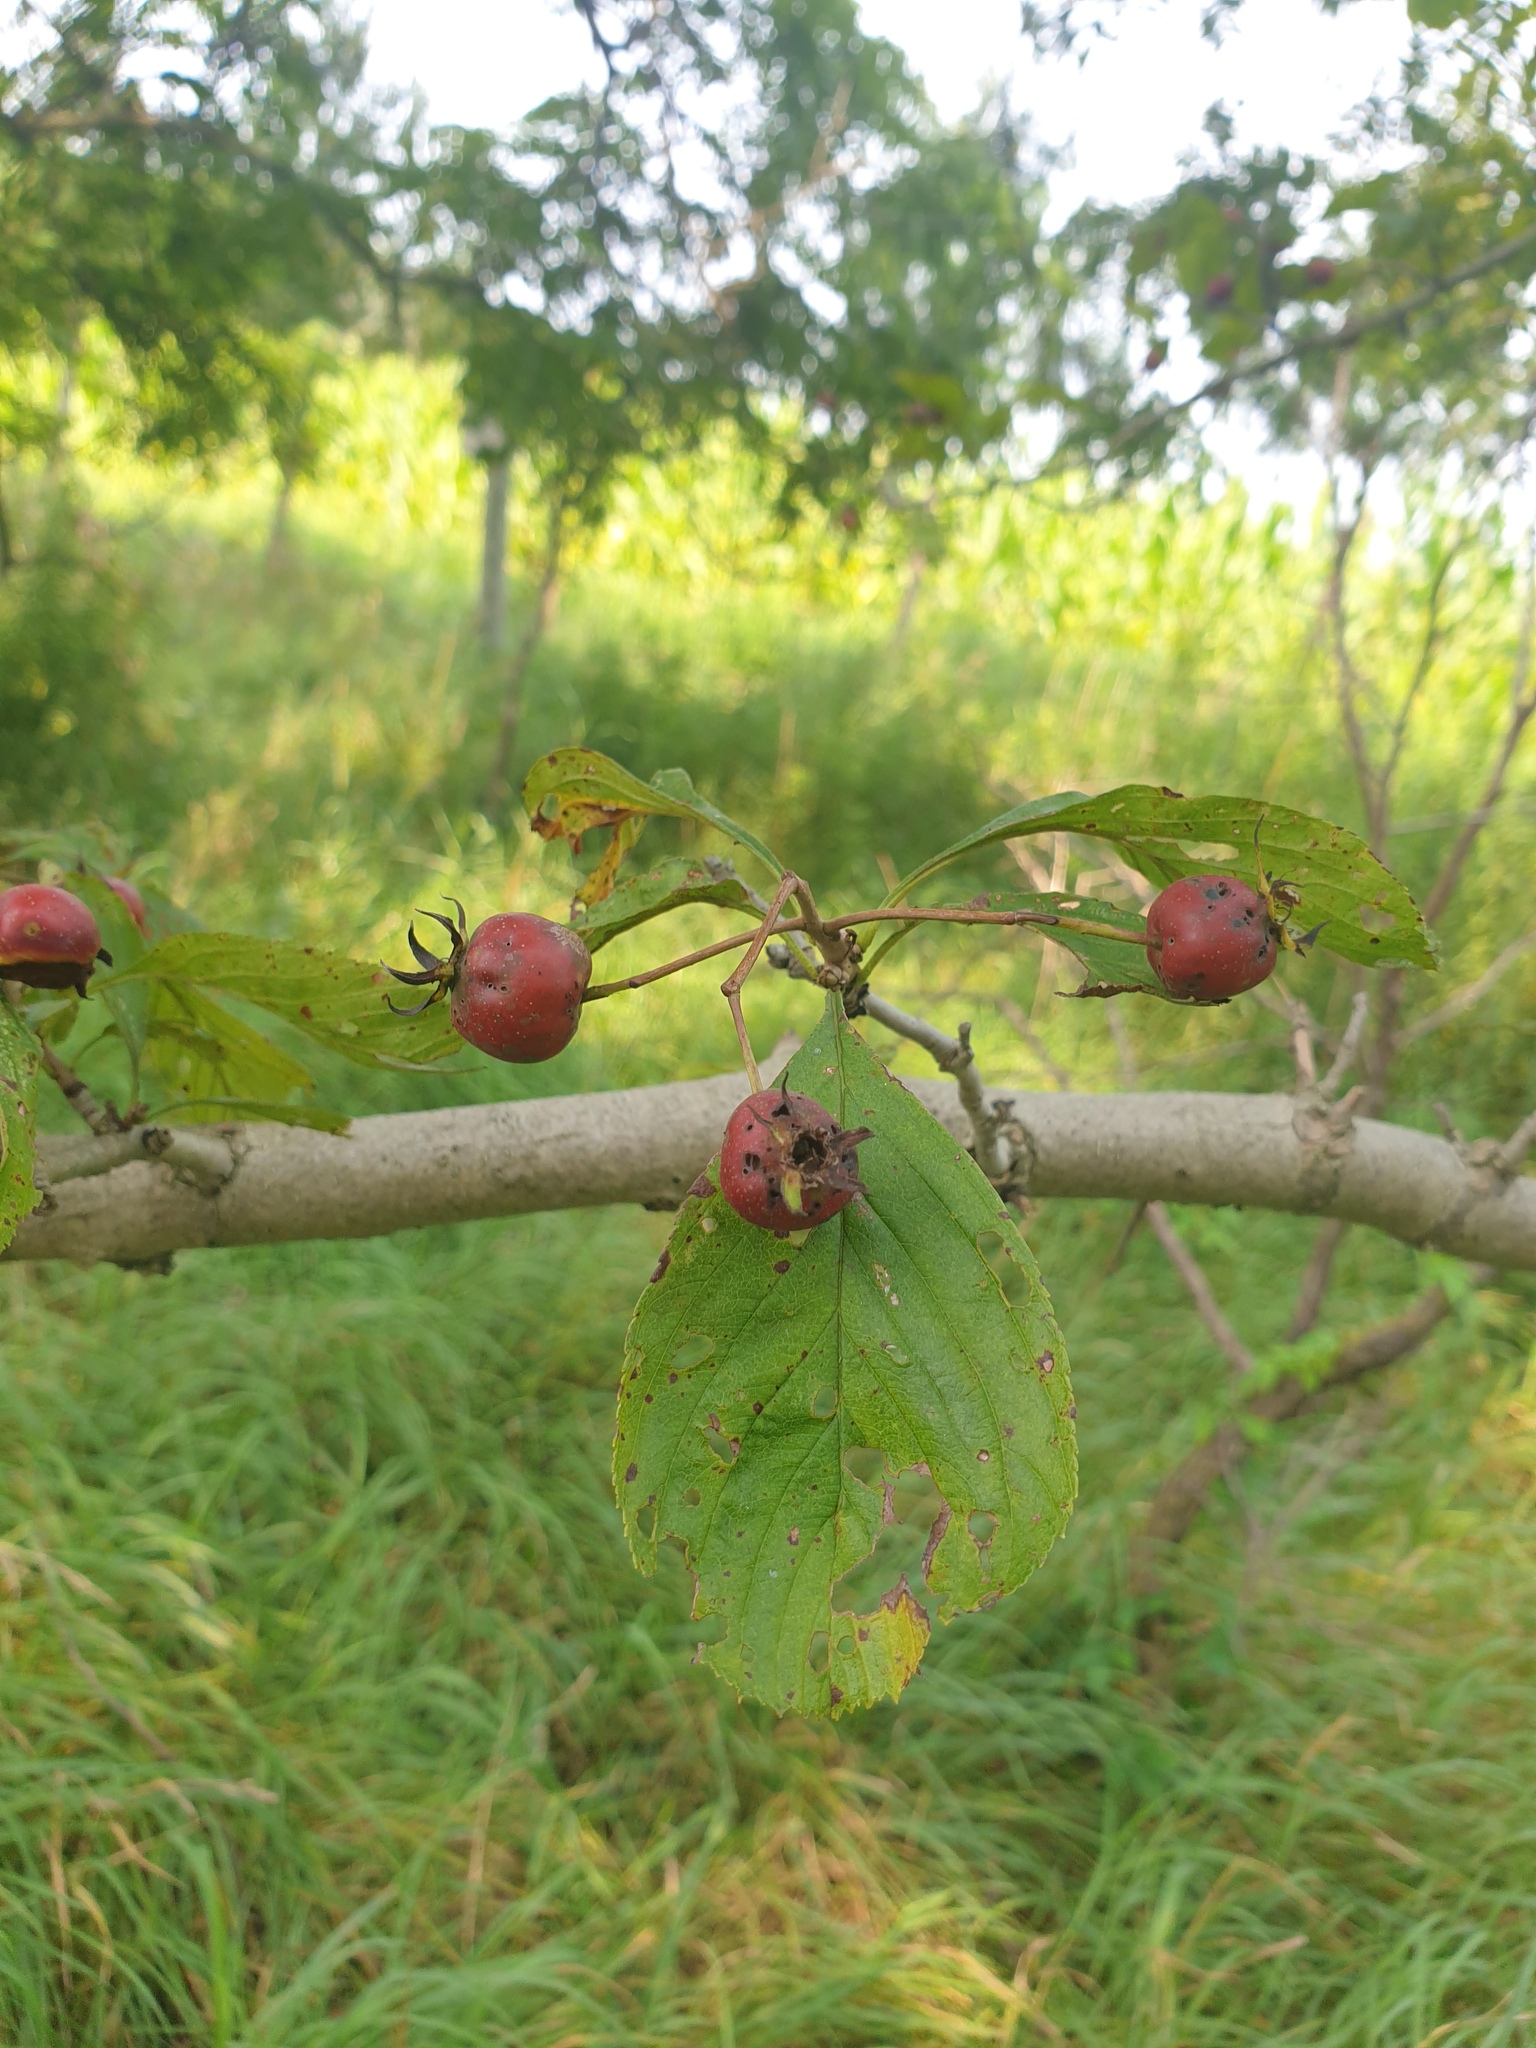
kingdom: Plantae
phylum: Tracheophyta
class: Magnoliopsida
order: Rosales
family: Rosaceae
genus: Crataegus
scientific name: Crataegus punctata
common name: Dotted hawthorn
